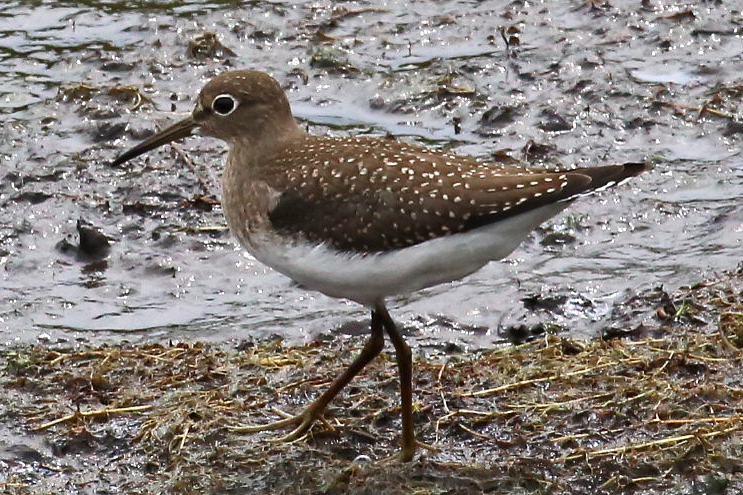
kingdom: Animalia
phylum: Chordata
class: Aves
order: Charadriiformes
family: Scolopacidae
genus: Tringa
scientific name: Tringa solitaria
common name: Solitary sandpiper
